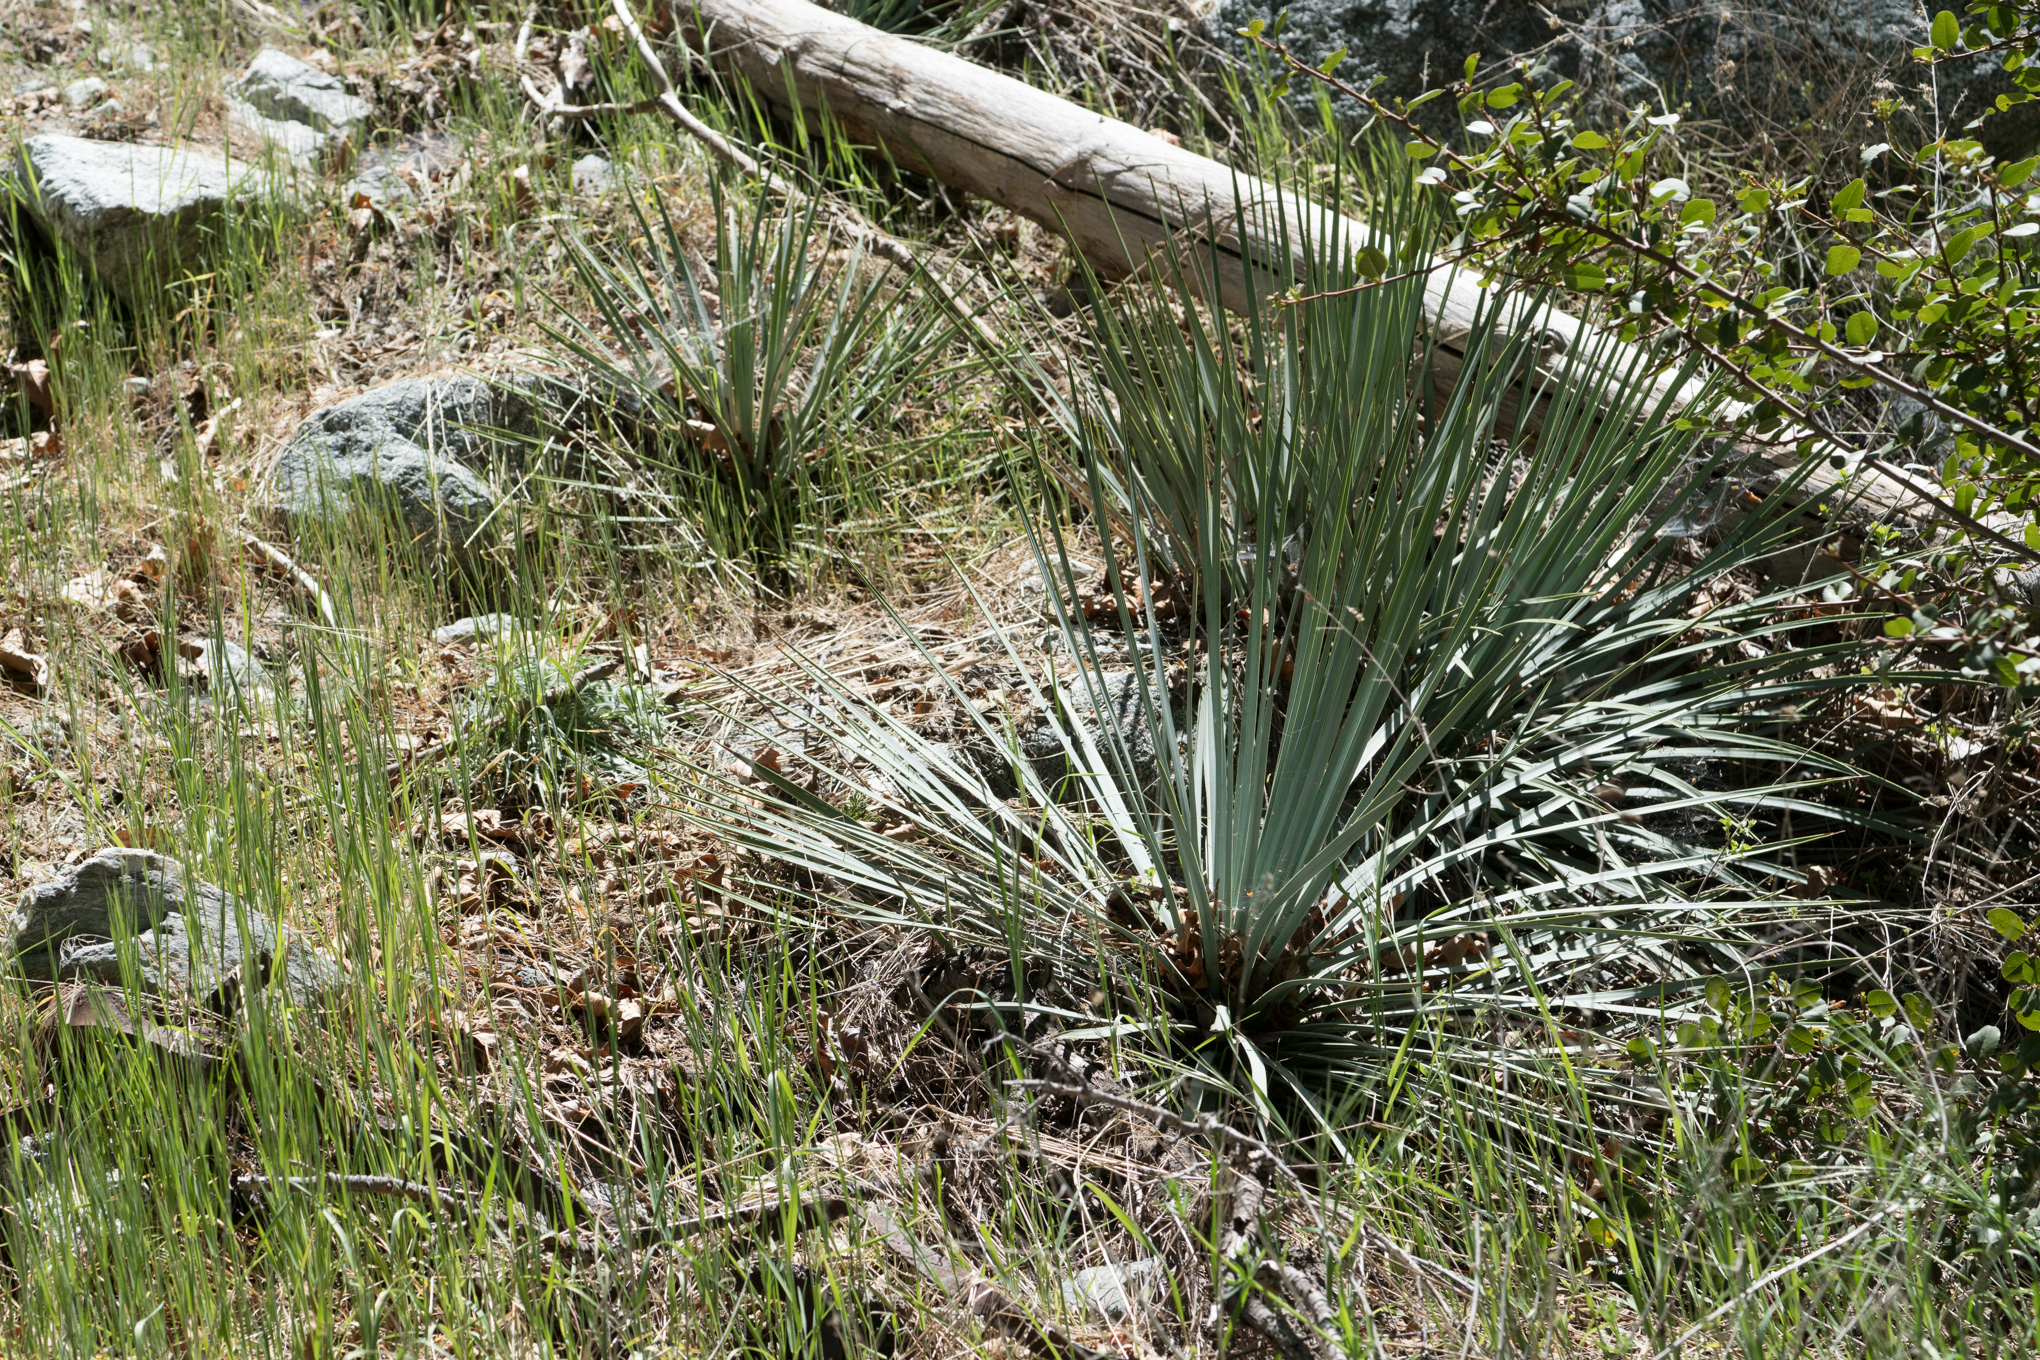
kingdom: Plantae
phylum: Tracheophyta
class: Liliopsida
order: Asparagales
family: Asparagaceae
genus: Hesperoyucca
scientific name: Hesperoyucca whipplei
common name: Our lord's-candle
